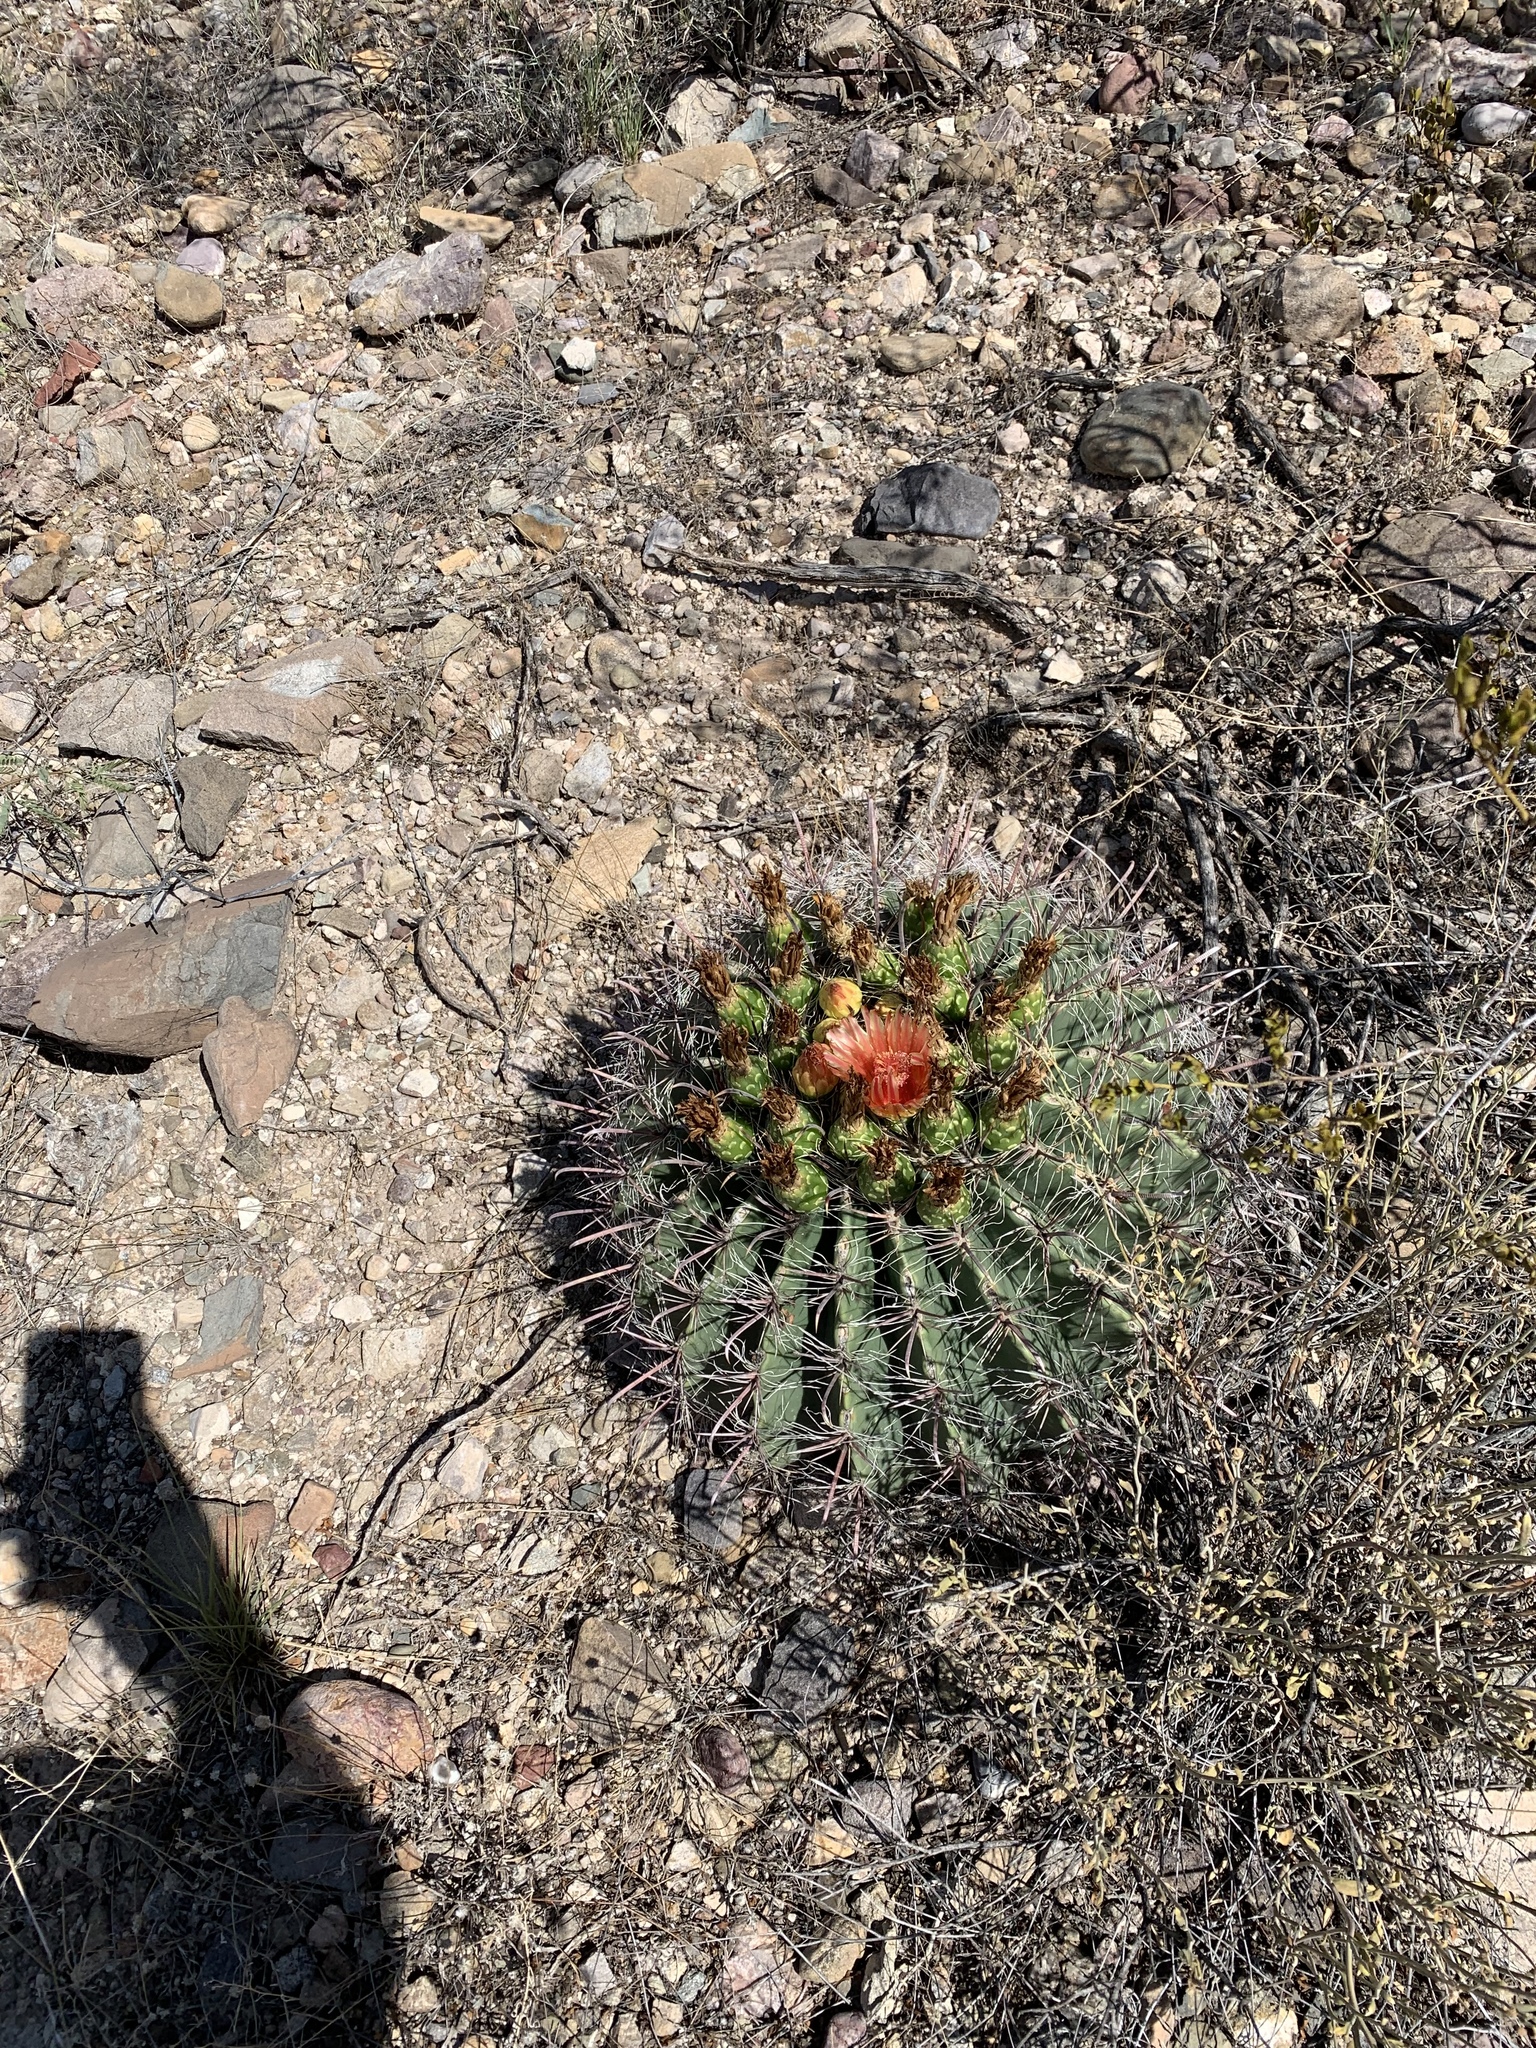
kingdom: Plantae
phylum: Tracheophyta
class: Magnoliopsida
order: Caryophyllales
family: Cactaceae
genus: Ferocactus
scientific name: Ferocactus wislizeni
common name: Candy barrel cactus
